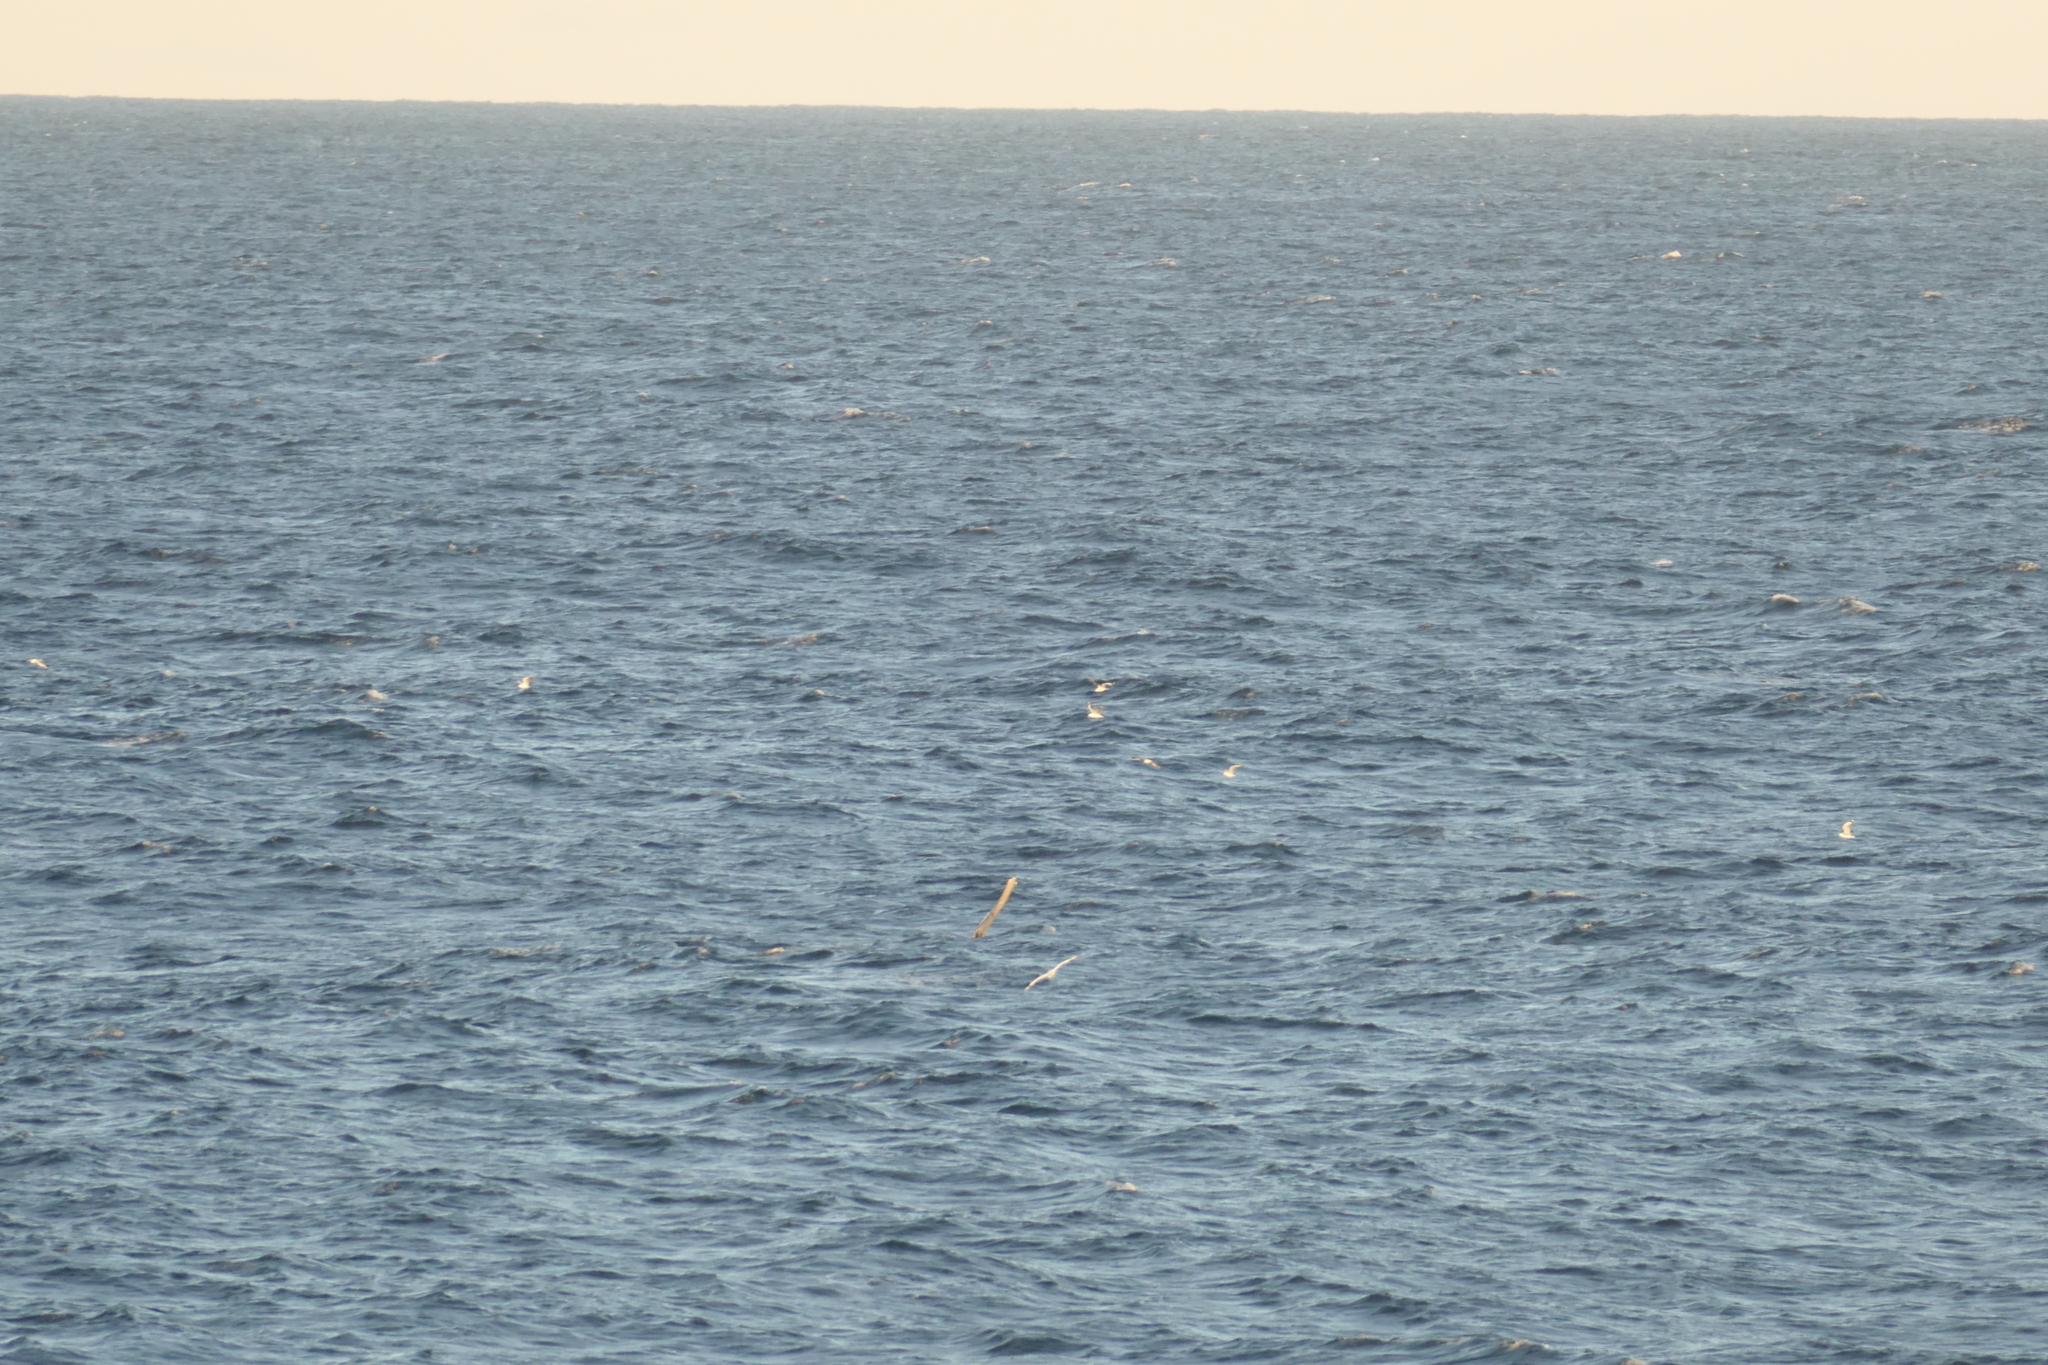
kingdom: Animalia
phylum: Chordata
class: Mammalia
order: Cetacea
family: Balaenopteridae
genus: Megaptera
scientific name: Megaptera novaeangliae
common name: Humpback whale
